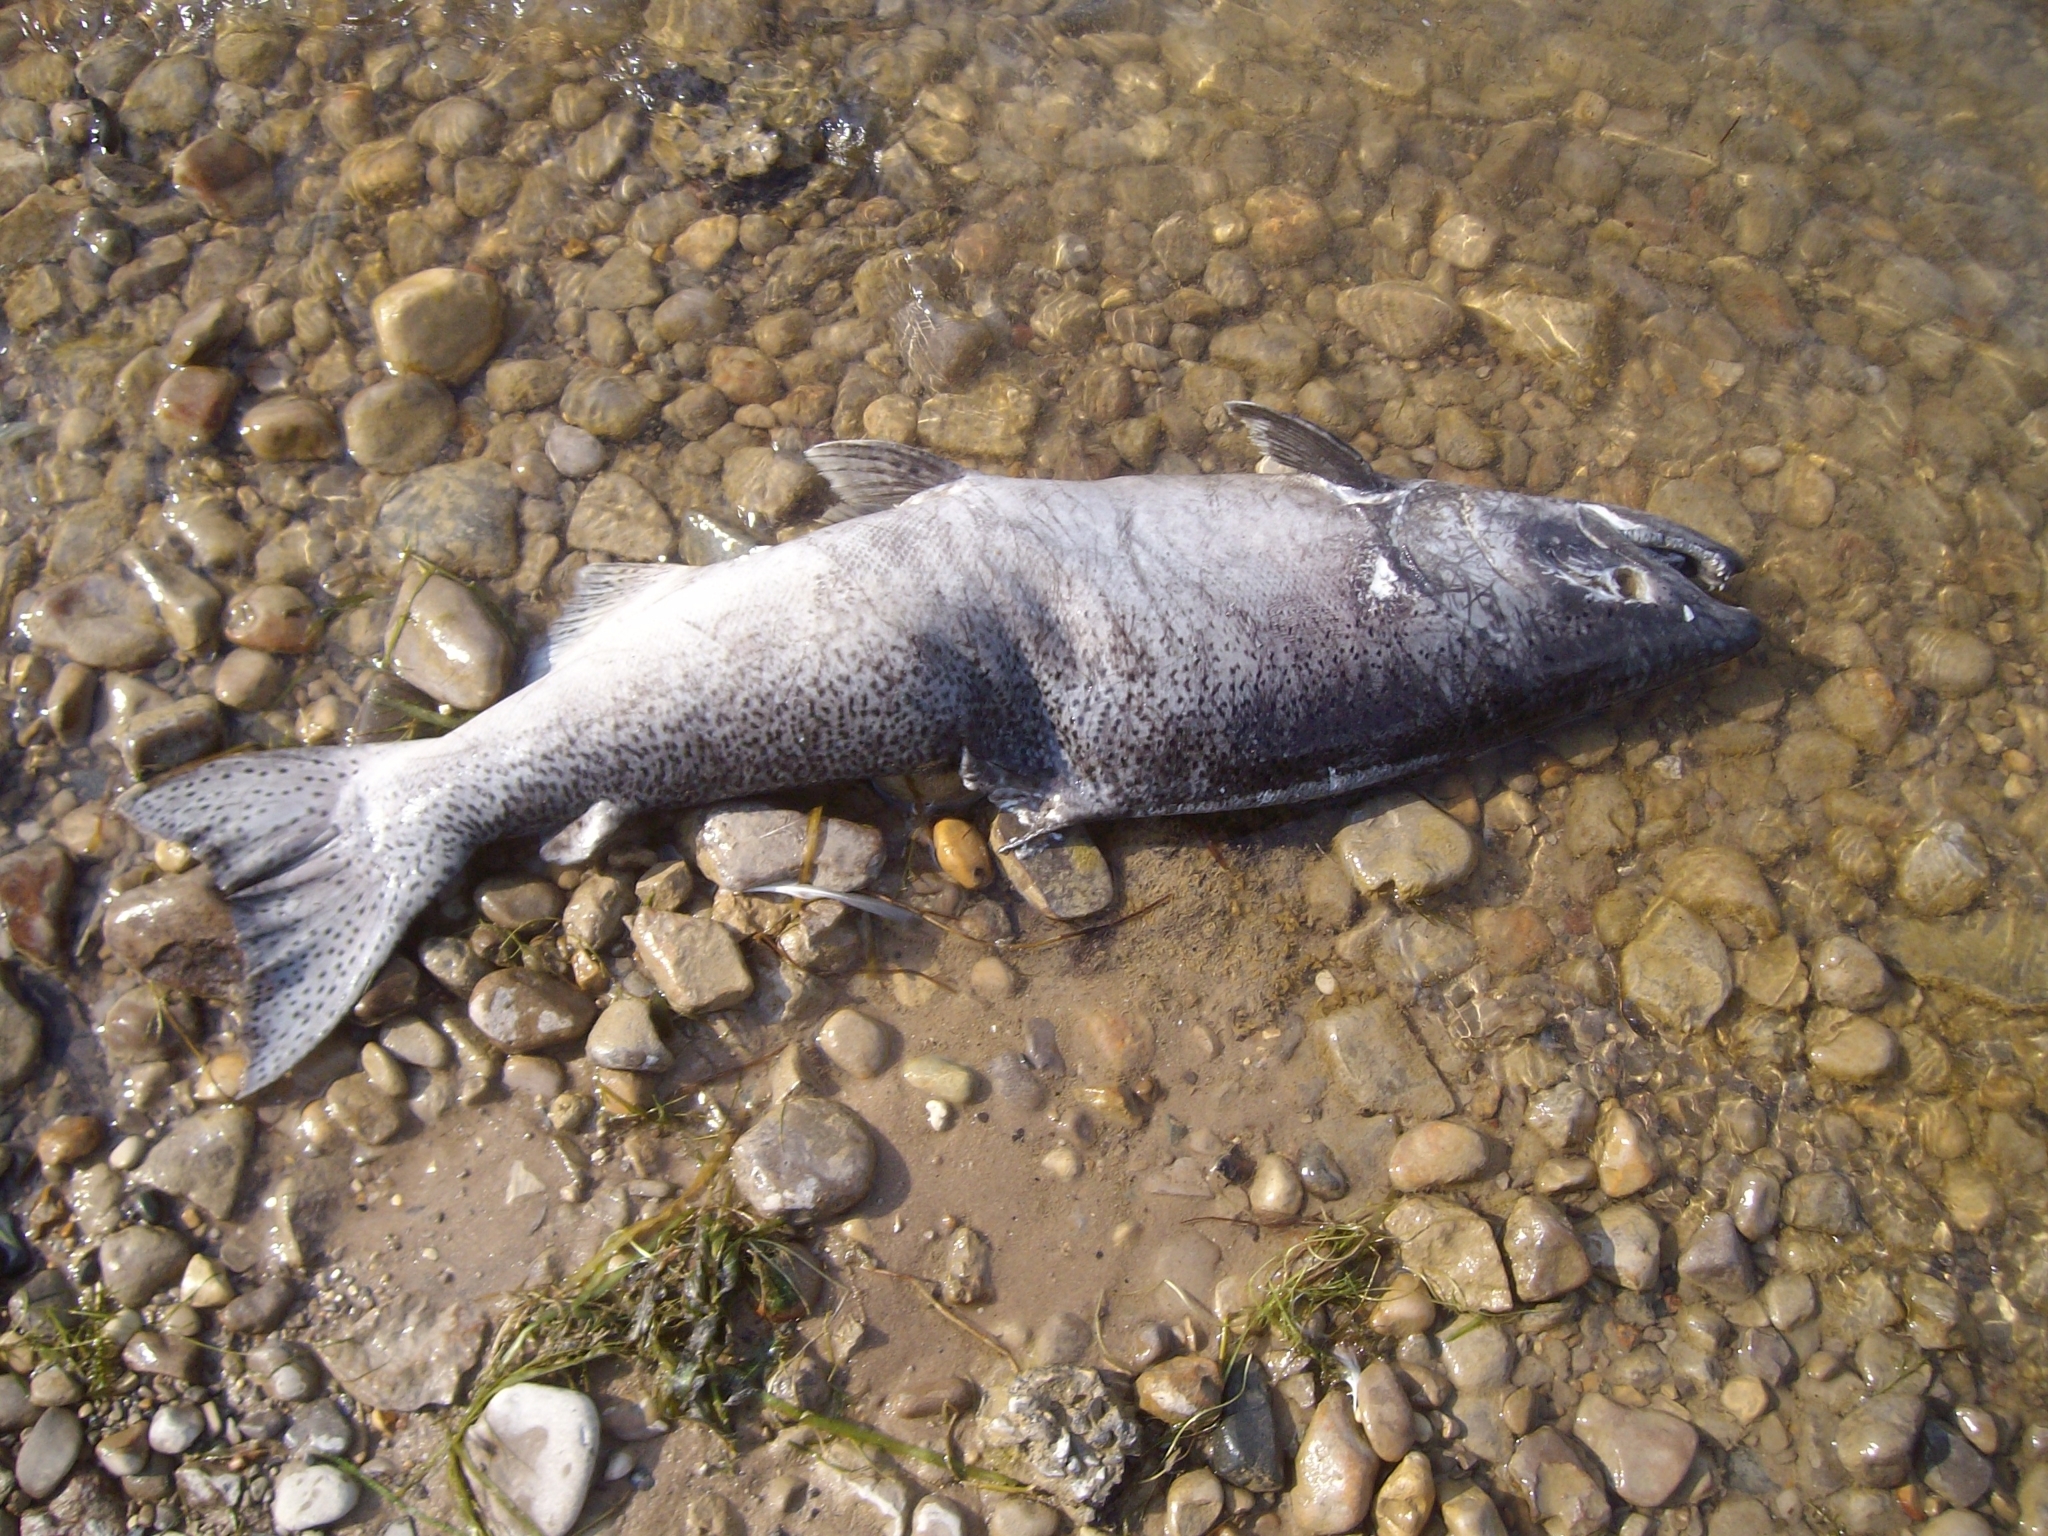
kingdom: Animalia
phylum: Chordata
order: Salmoniformes
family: Salmonidae
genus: Oncorhynchus
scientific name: Oncorhynchus tshawytscha
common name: Chinook salmon
